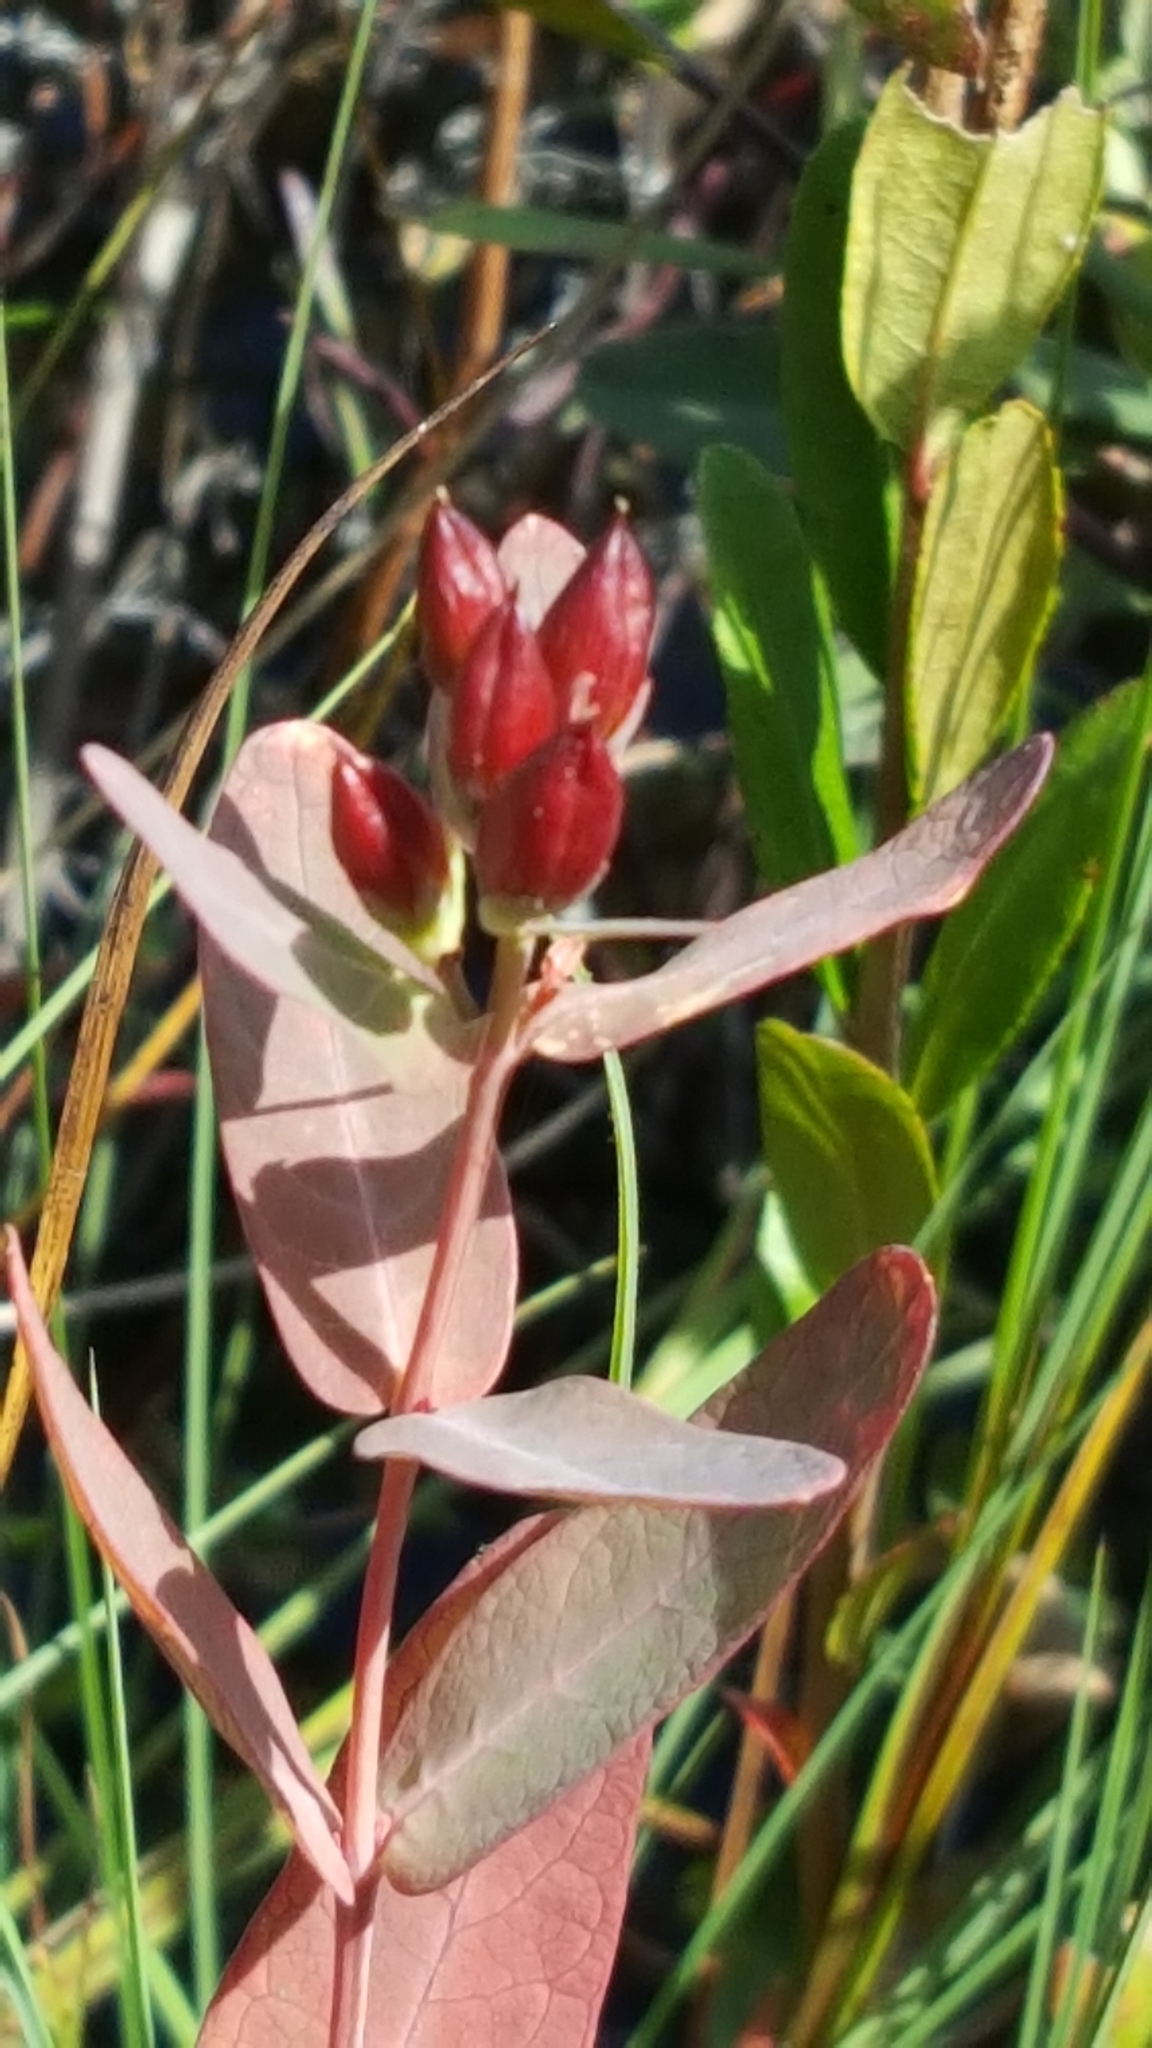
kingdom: Plantae
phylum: Tracheophyta
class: Magnoliopsida
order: Malpighiales
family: Hypericaceae
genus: Triadenum
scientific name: Triadenum fraseri
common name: Fraser's marsh st. johnswort
